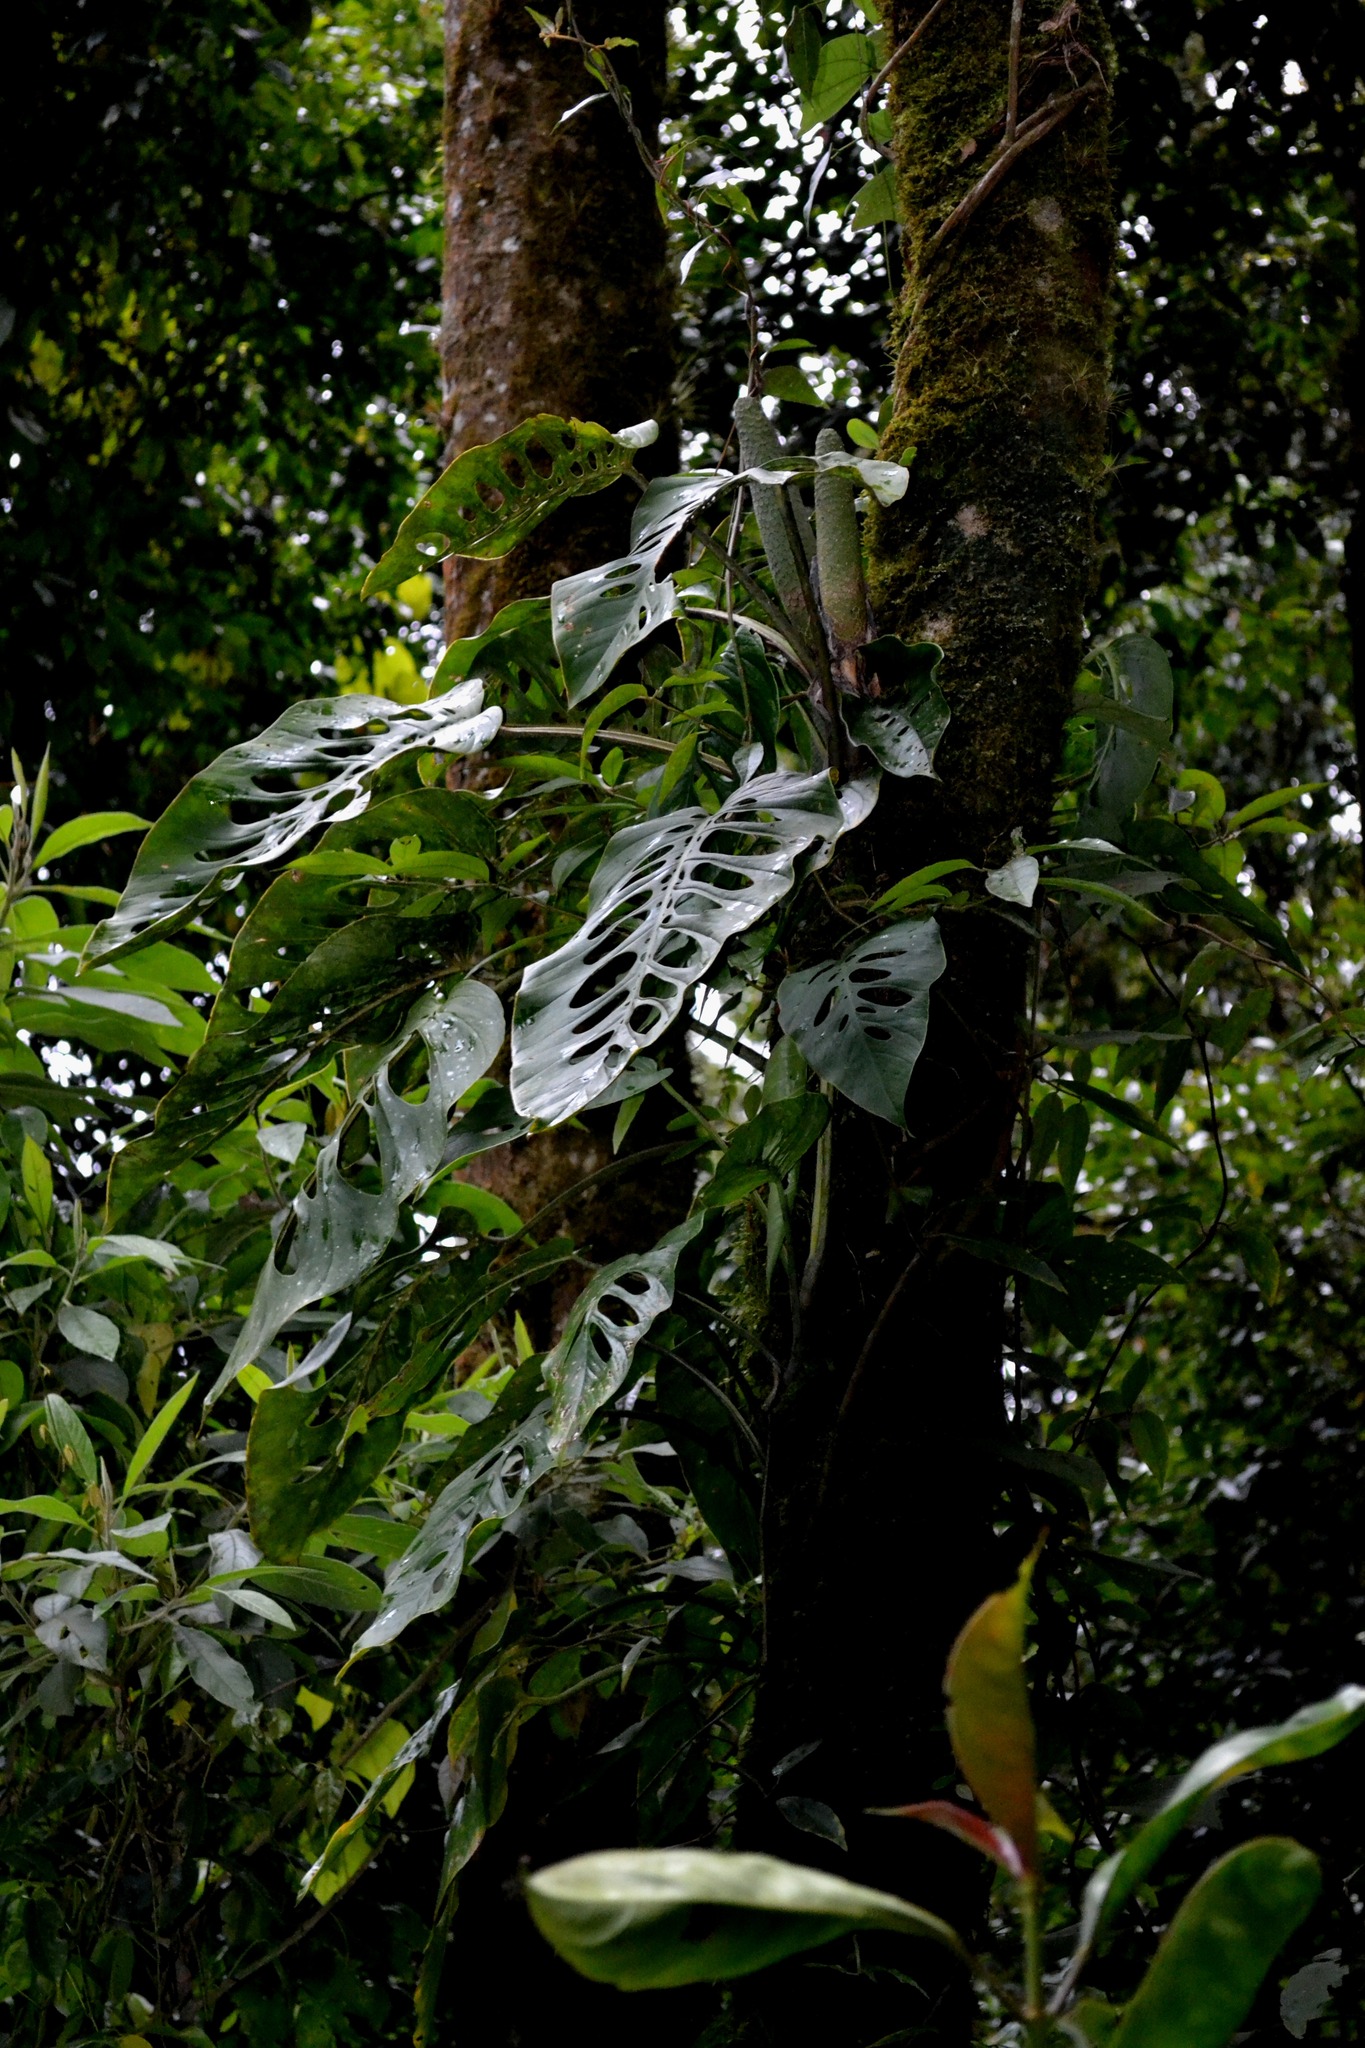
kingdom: Plantae
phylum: Tracheophyta
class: Liliopsida
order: Alismatales
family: Araceae
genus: Monstera
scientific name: Monstera siltepecana
